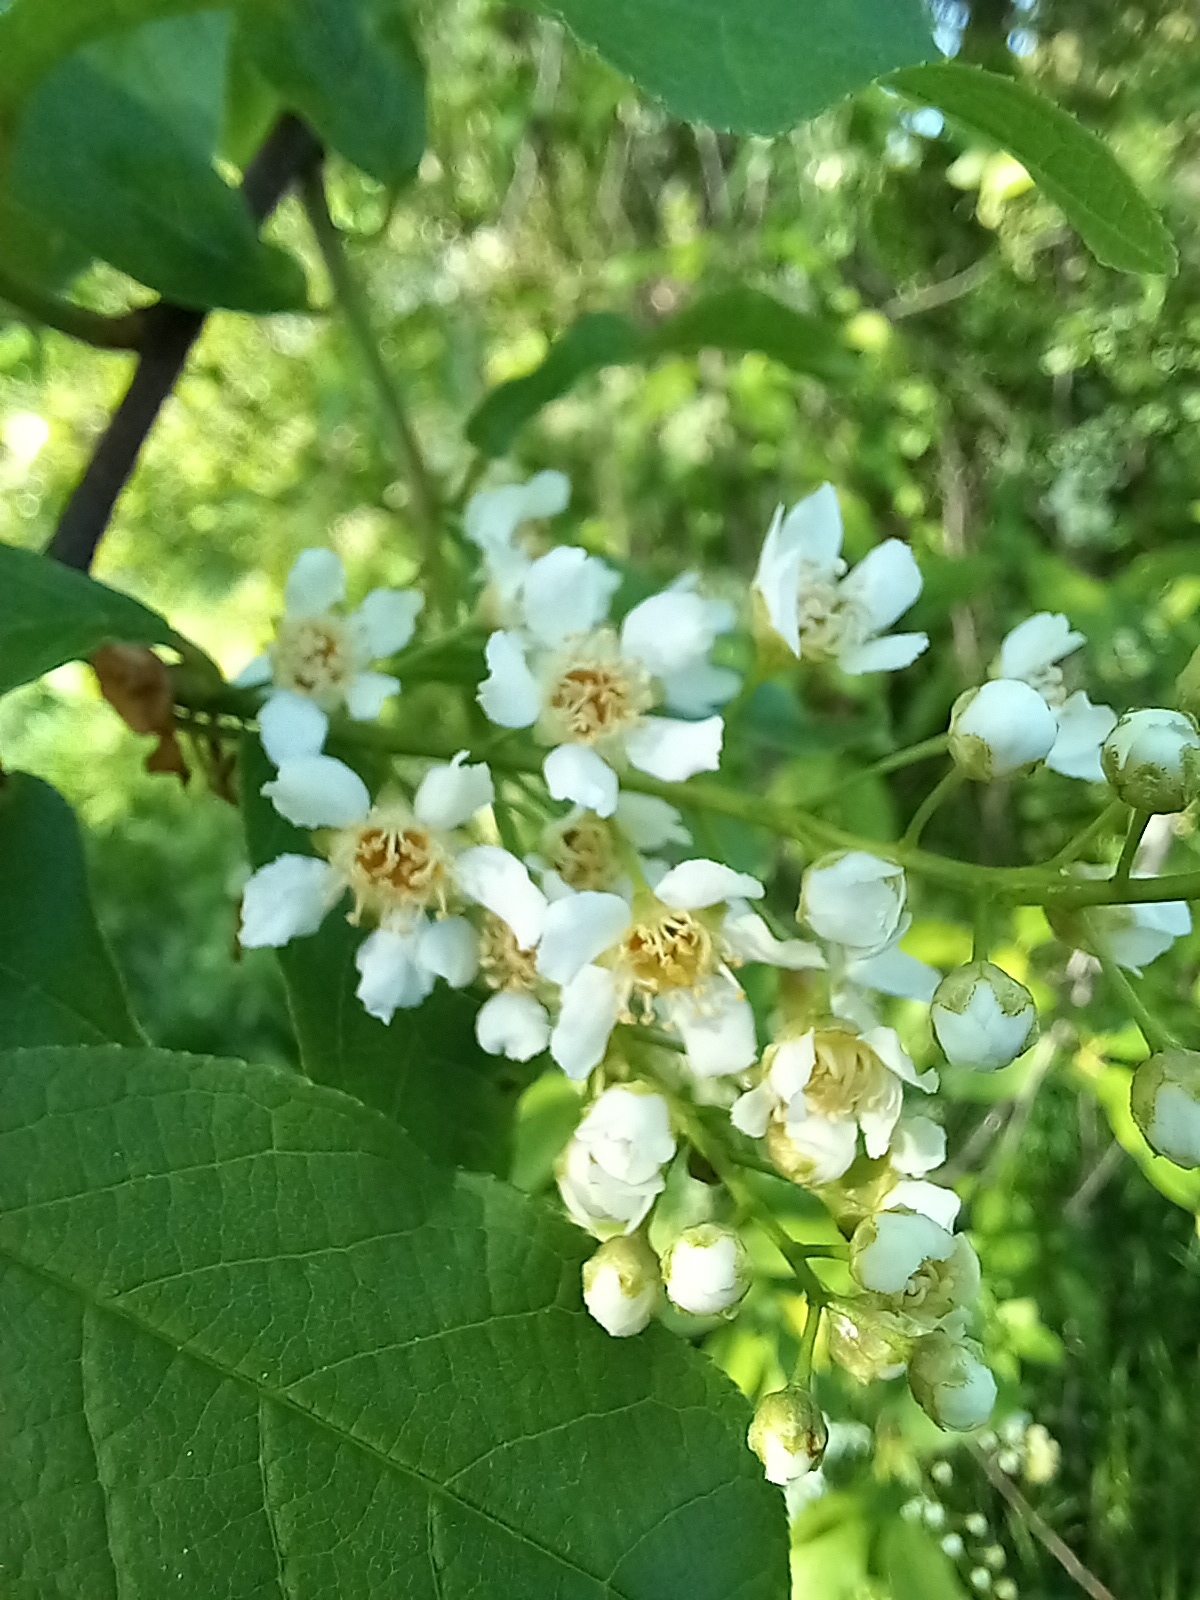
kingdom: Plantae
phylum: Tracheophyta
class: Magnoliopsida
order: Rosales
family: Rosaceae
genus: Prunus
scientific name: Prunus padus
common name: Bird cherry
